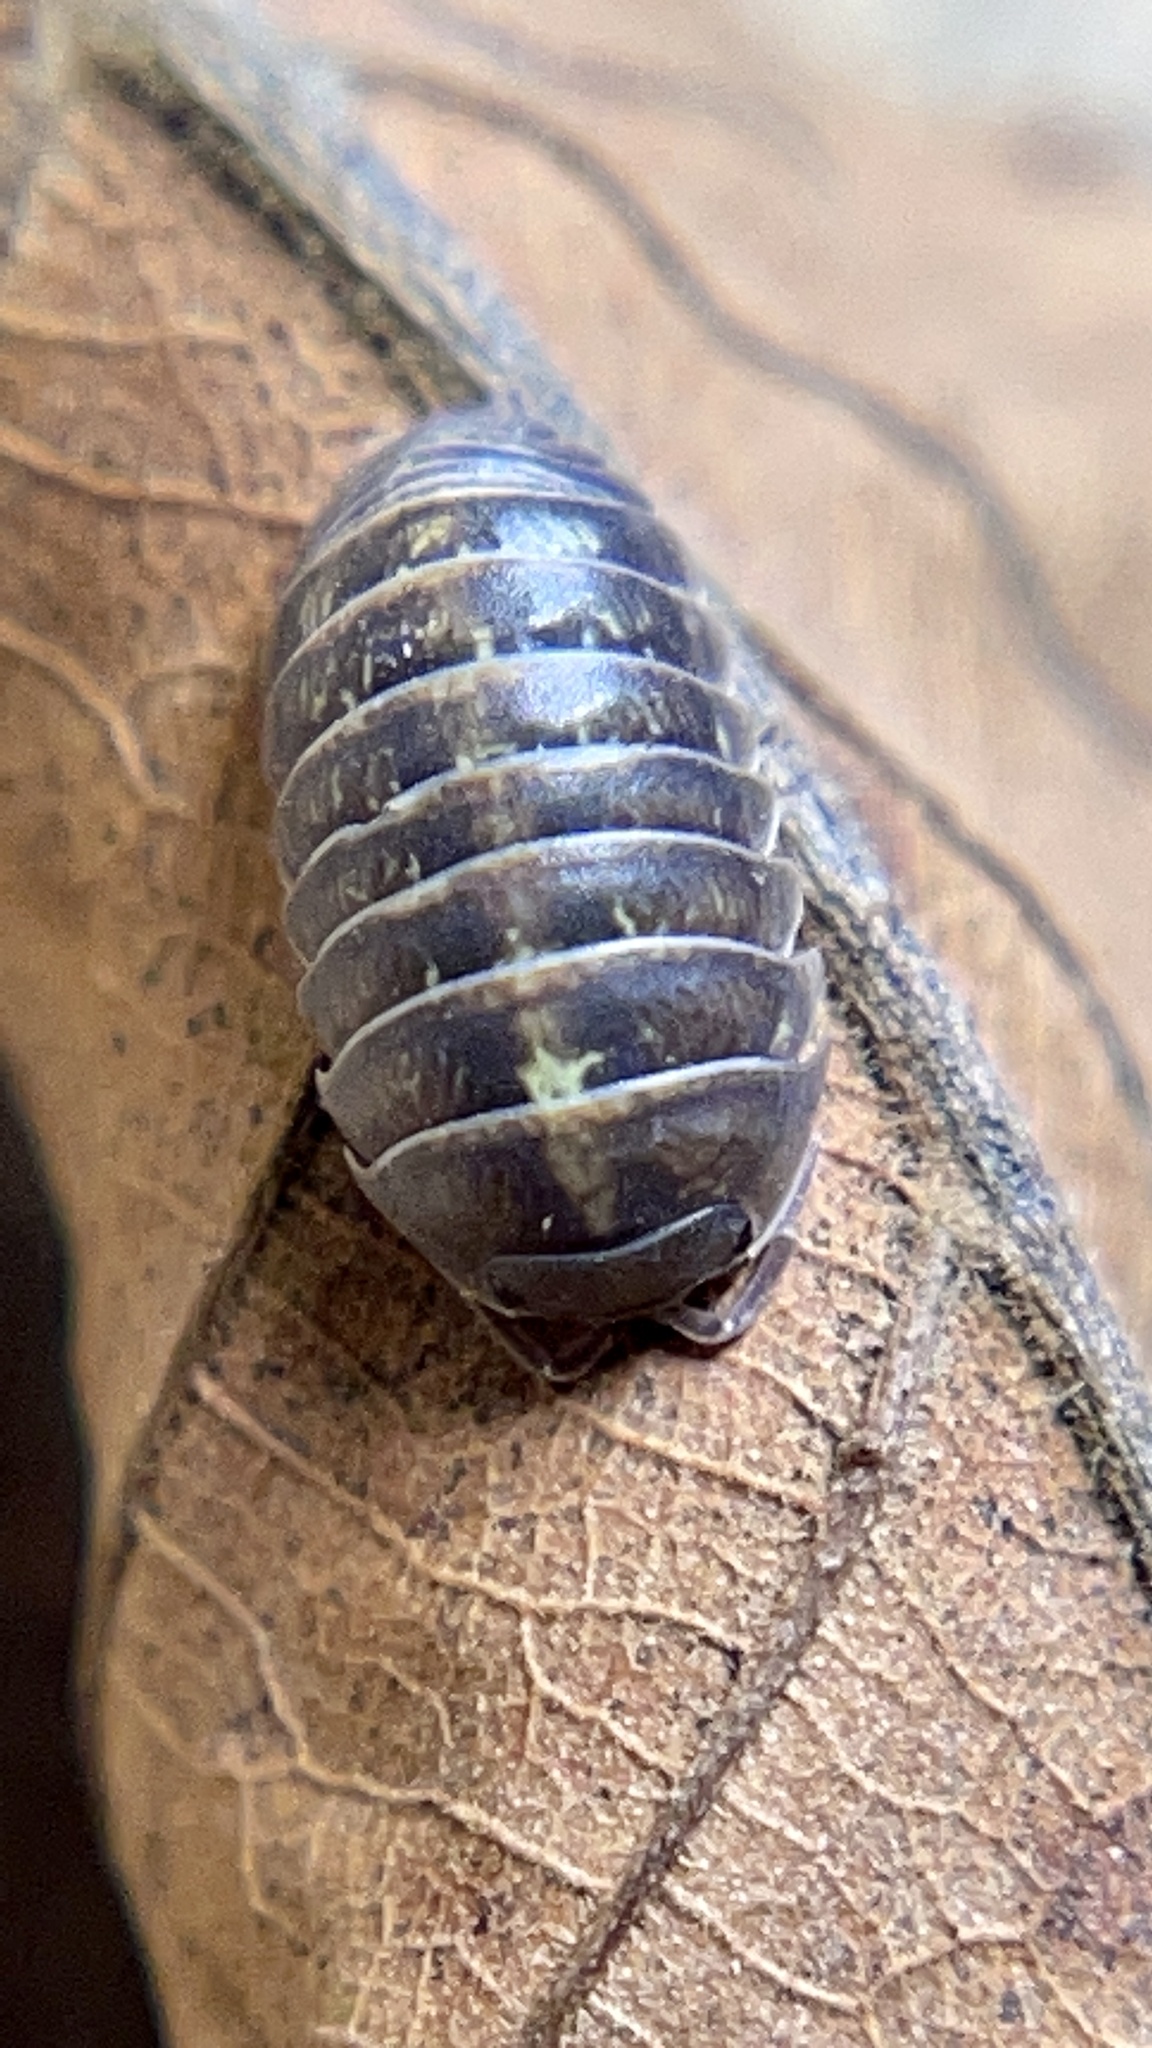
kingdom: Animalia
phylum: Arthropoda
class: Malacostraca
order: Isopoda
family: Armadillidiidae
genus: Armadillidium
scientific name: Armadillidium vulgare
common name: Common pill woodlouse
